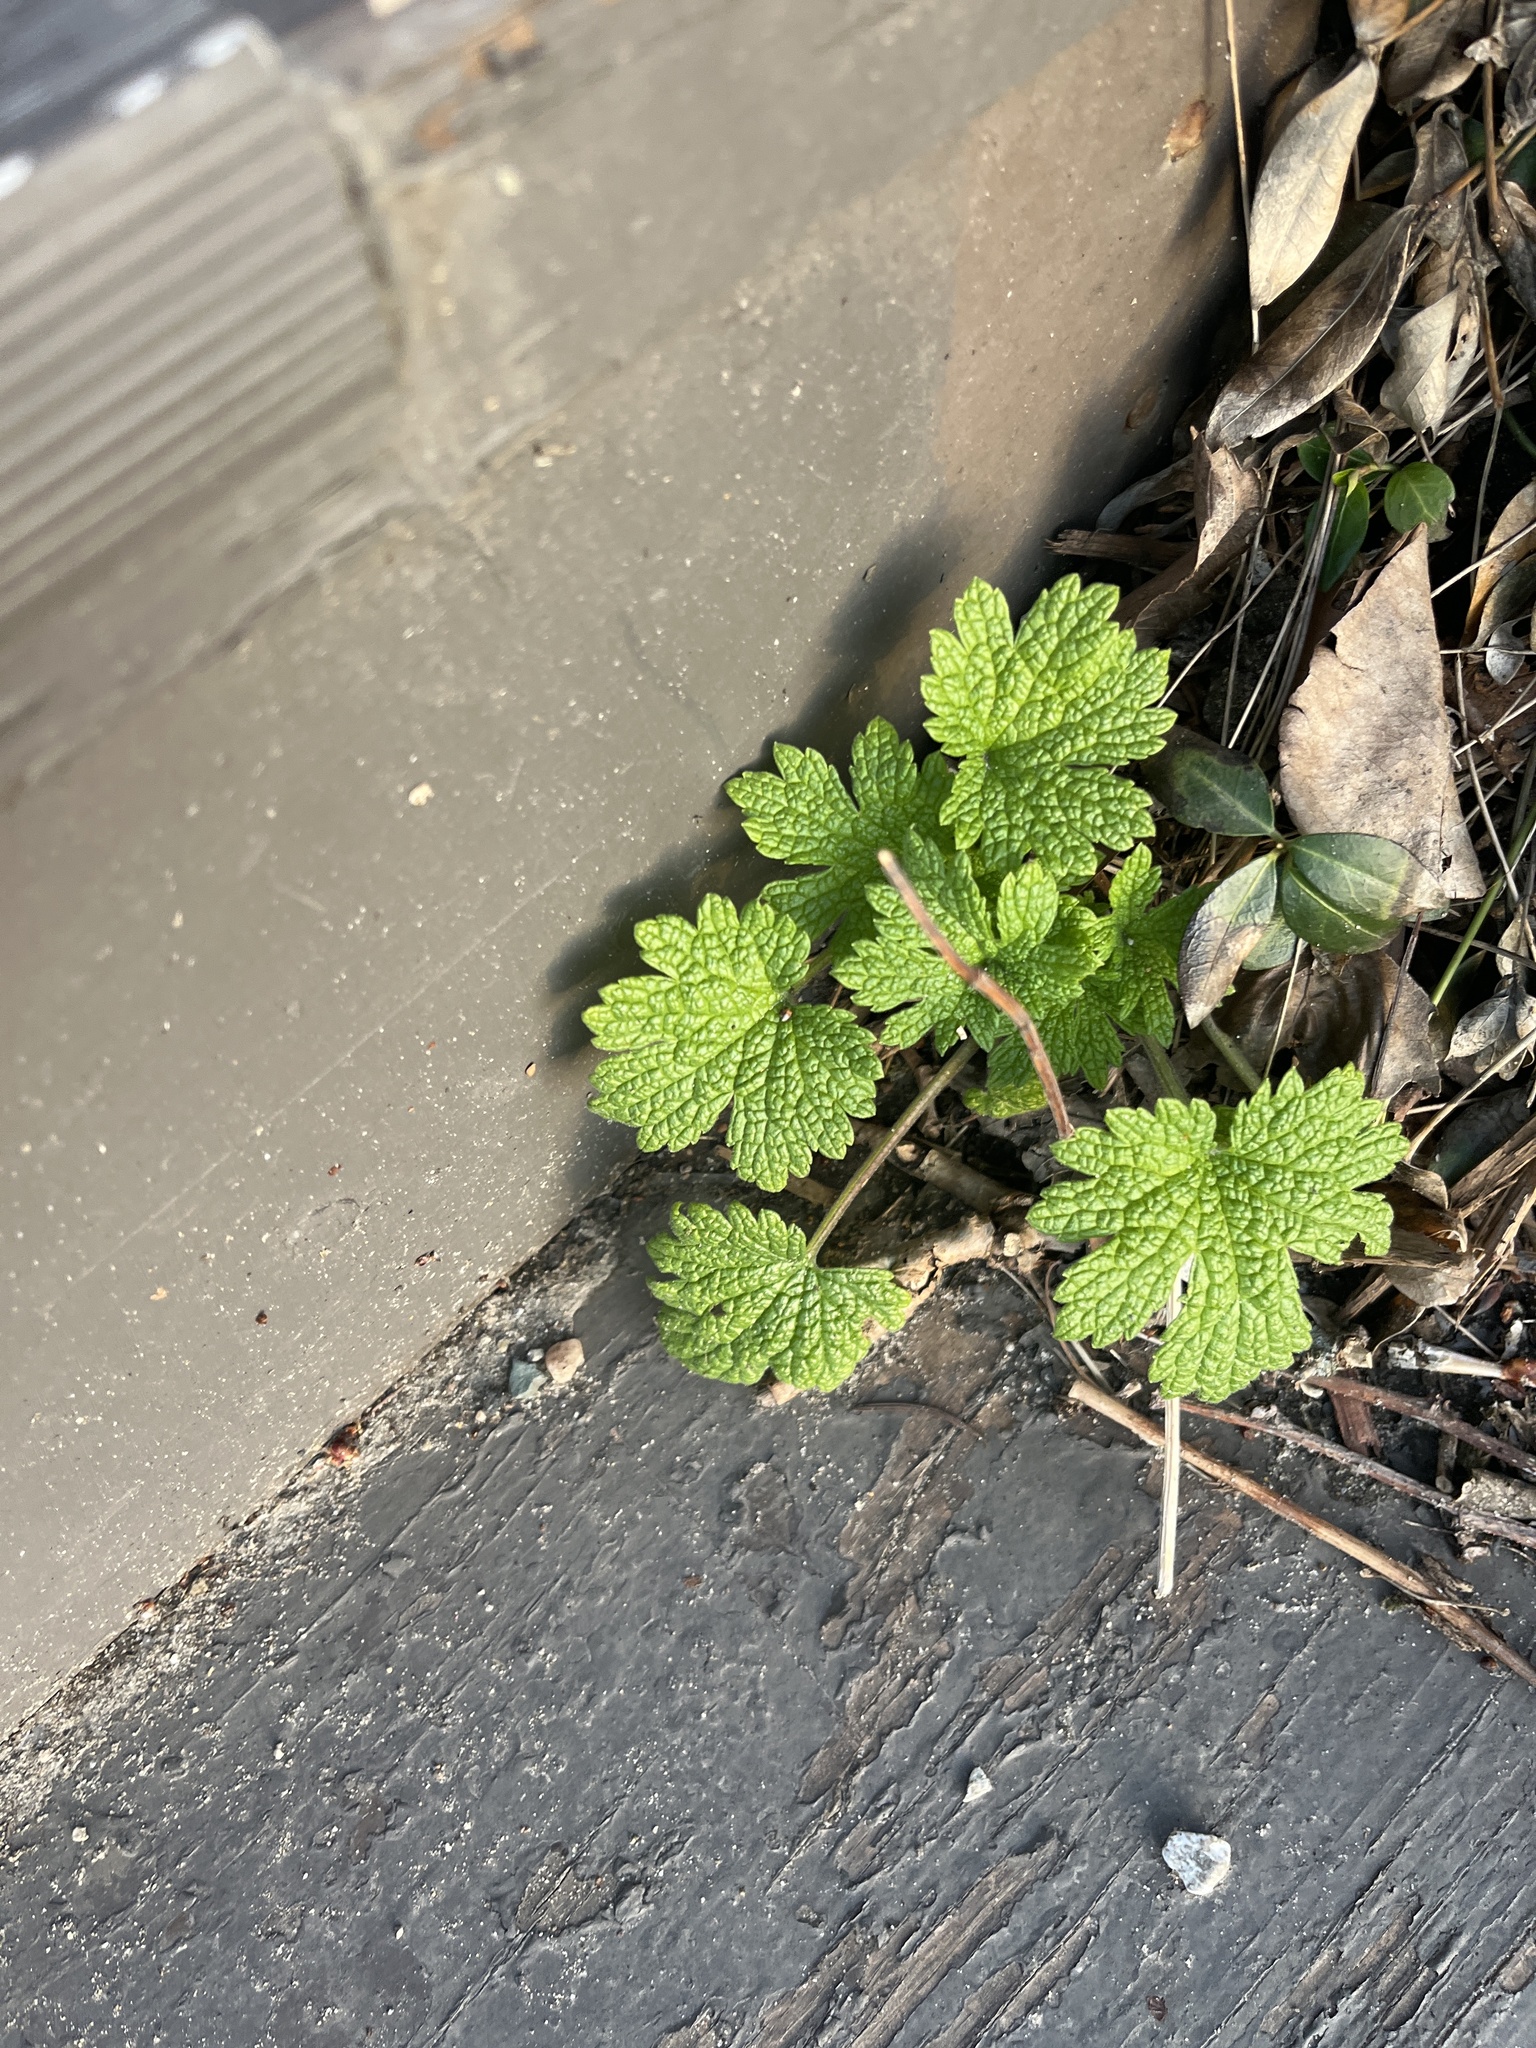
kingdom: Plantae
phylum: Tracheophyta
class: Magnoliopsida
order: Lamiales
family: Lamiaceae
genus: Leonurus
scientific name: Leonurus cardiaca
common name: Motherwort
